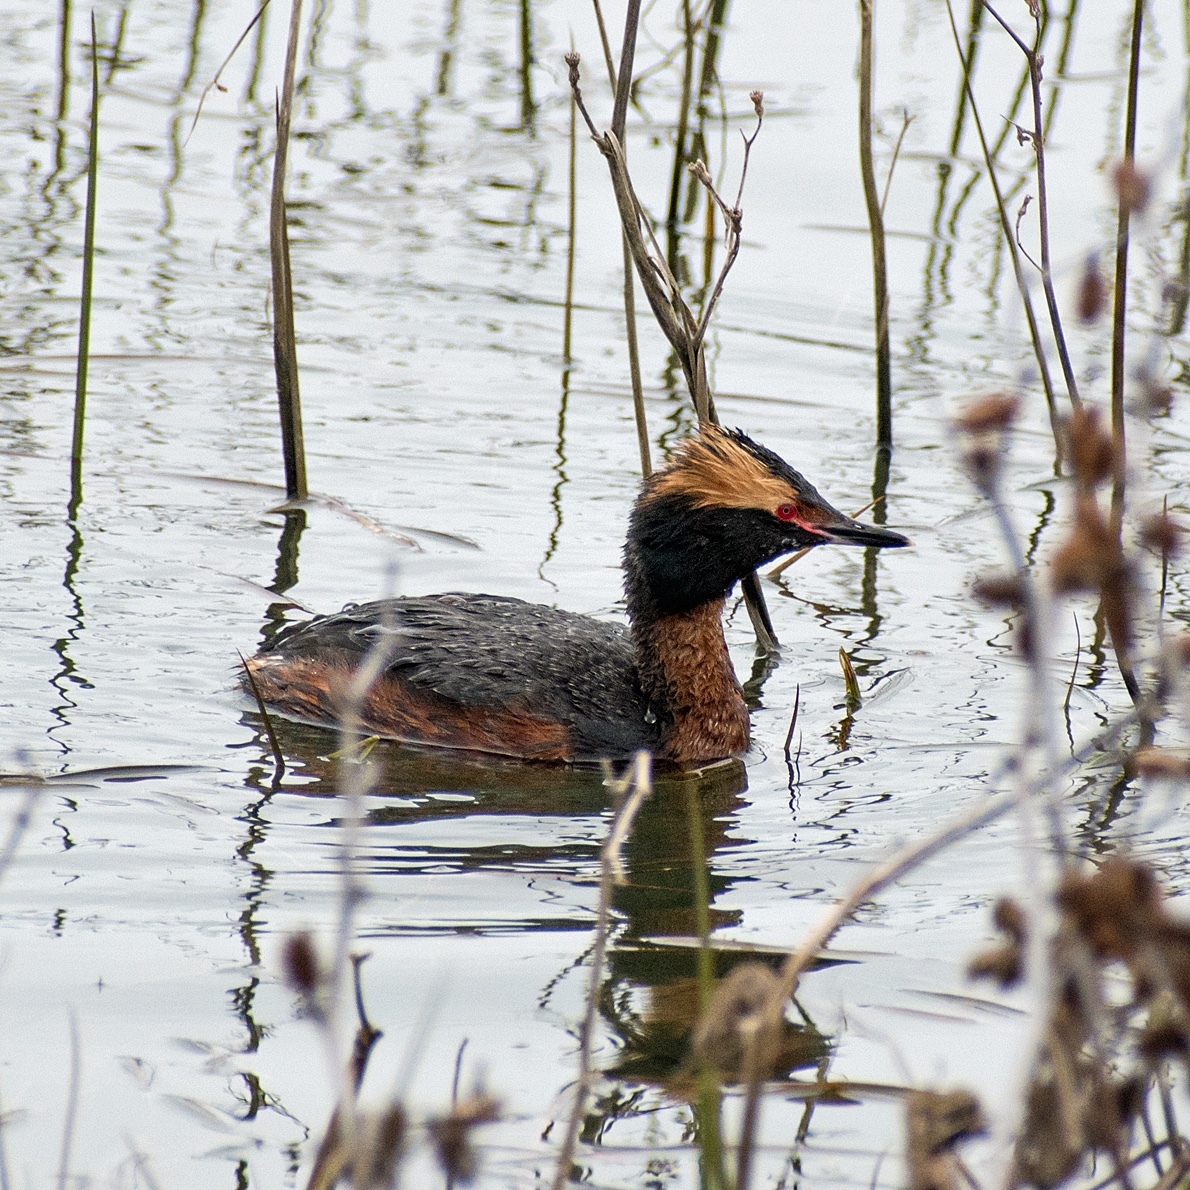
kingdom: Animalia
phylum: Chordata
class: Aves
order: Podicipediformes
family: Podicipedidae
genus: Podiceps
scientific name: Podiceps auritus
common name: Horned grebe
